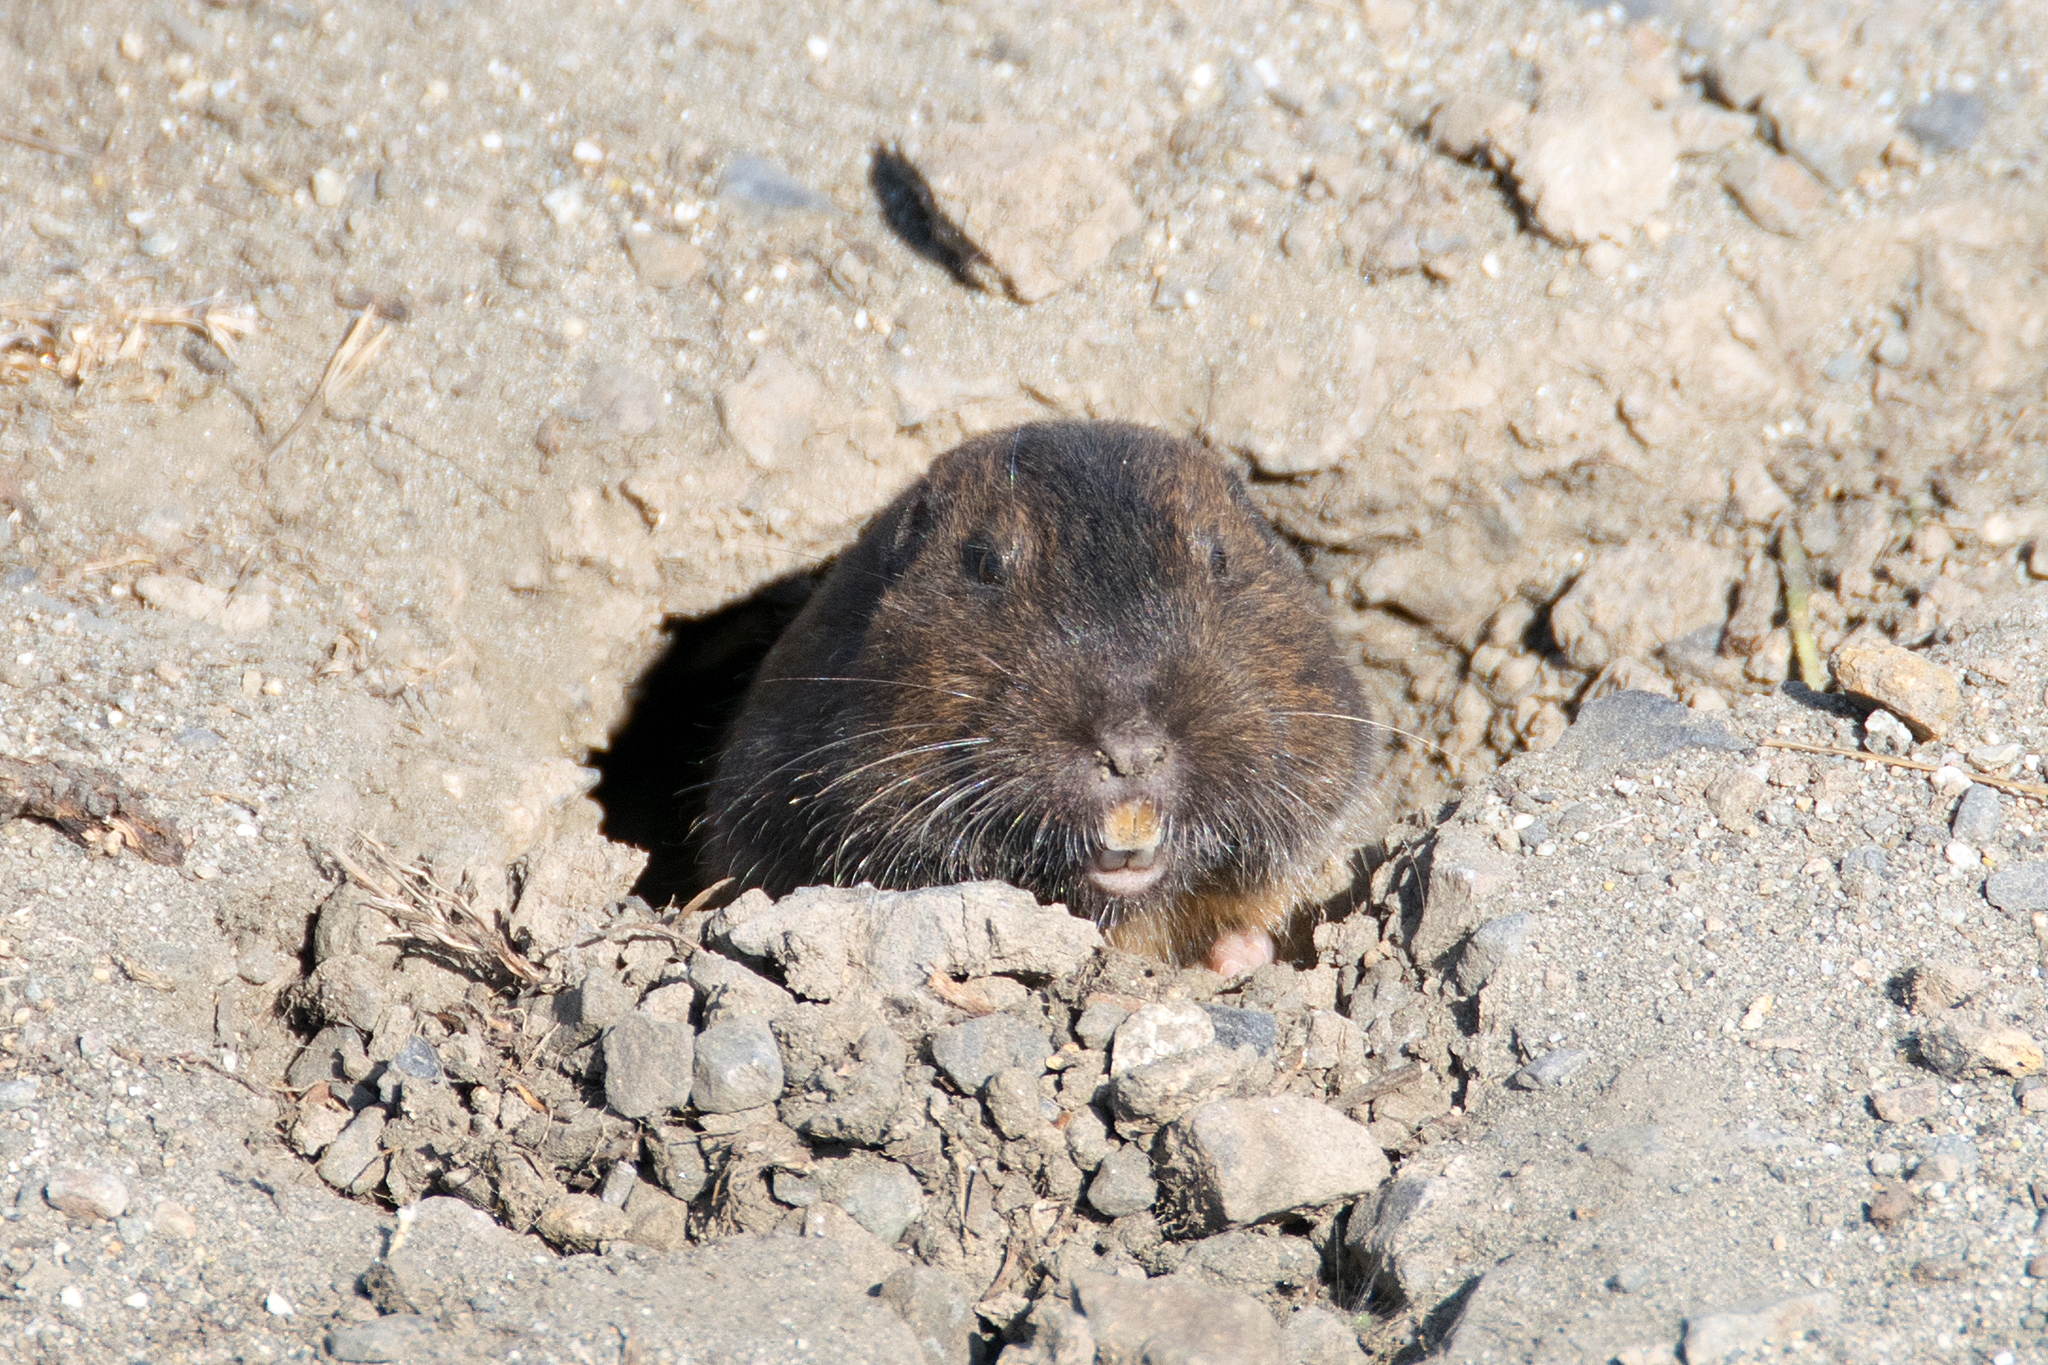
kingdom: Animalia
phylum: Chordata
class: Mammalia
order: Rodentia
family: Geomyidae
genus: Thomomys
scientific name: Thomomys bottae
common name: Botta's pocket gopher
